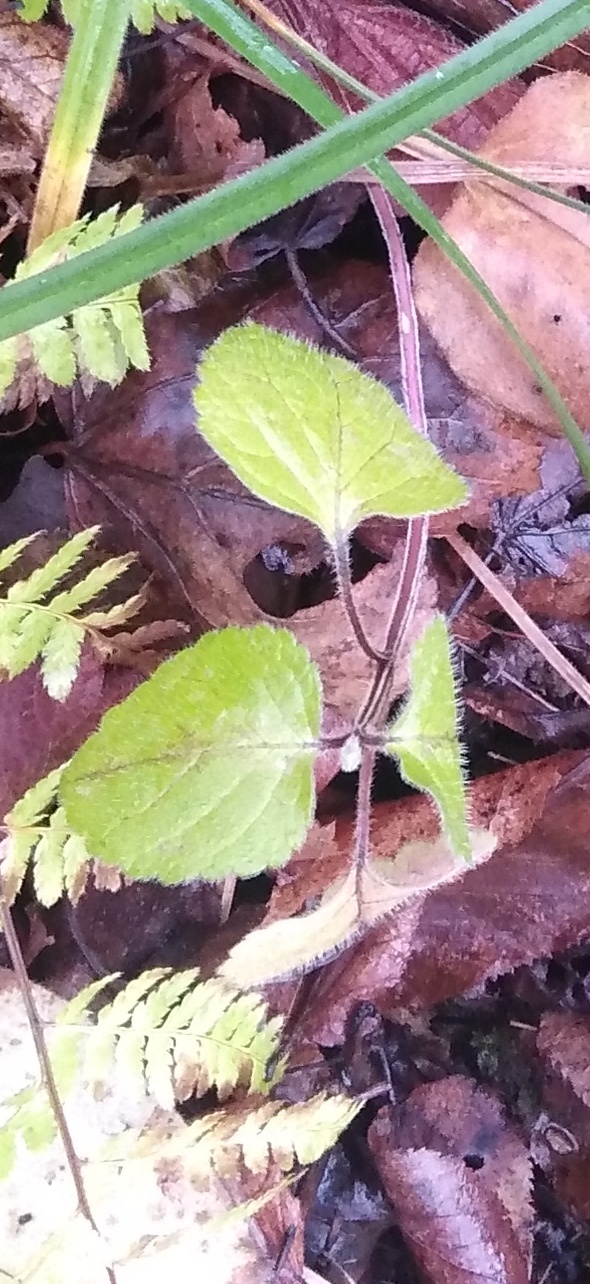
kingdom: Plantae
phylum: Tracheophyta
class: Magnoliopsida
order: Lamiales
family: Lamiaceae
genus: Lamium
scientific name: Lamium galeobdolon
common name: Yellow archangel
